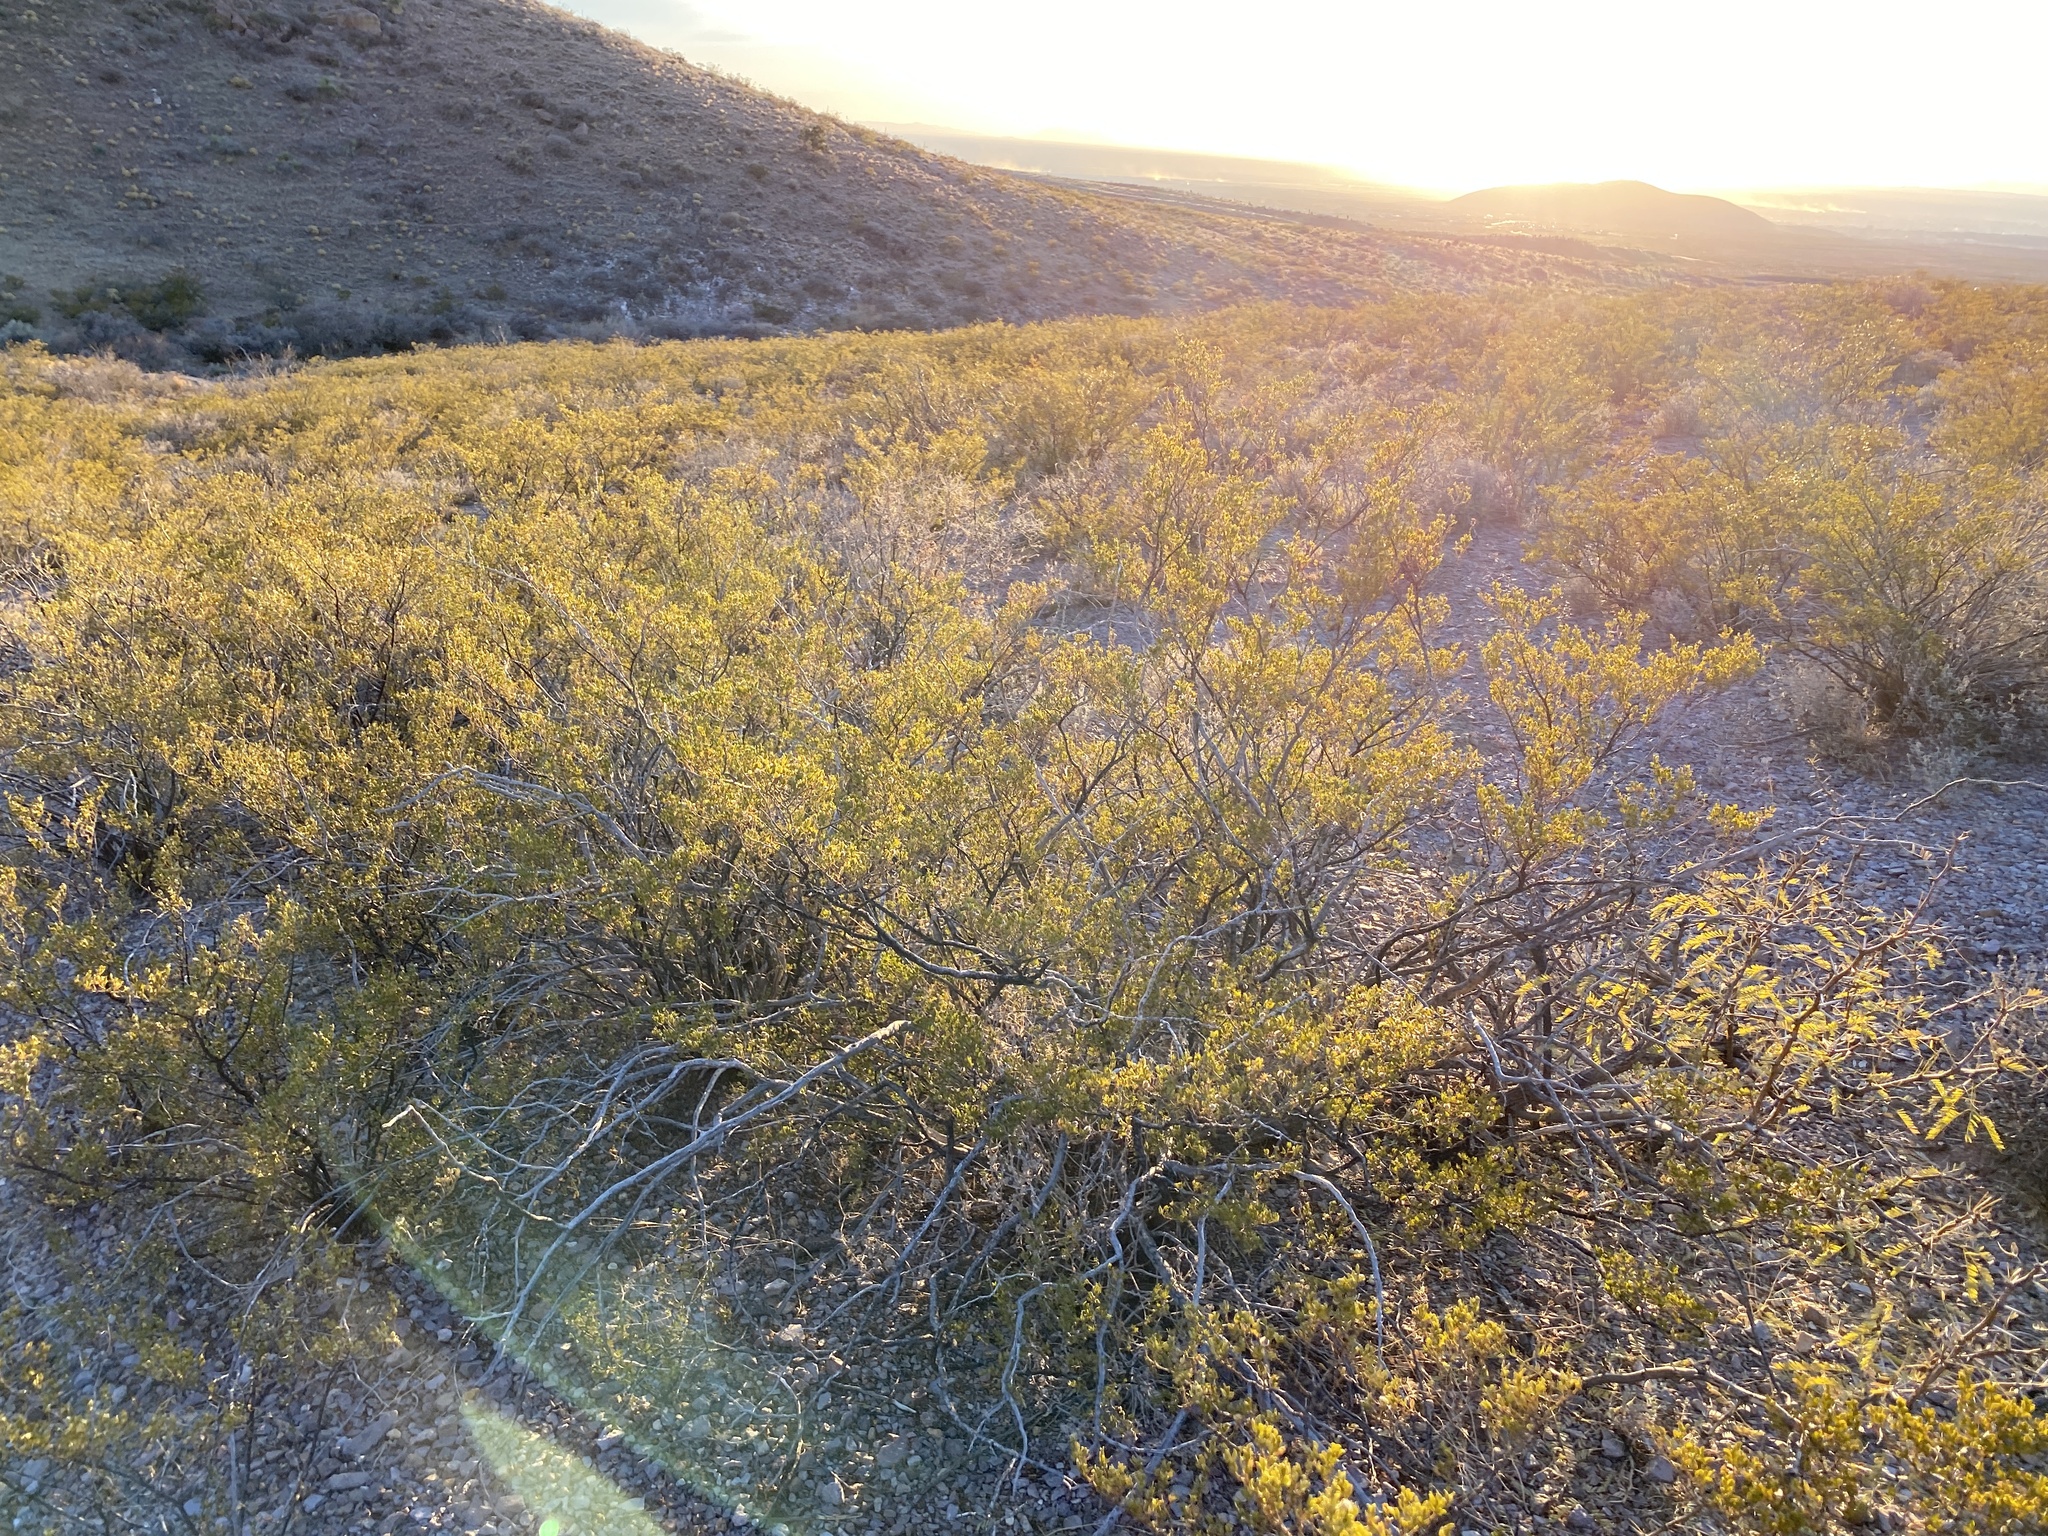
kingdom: Plantae
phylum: Tracheophyta
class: Magnoliopsida
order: Zygophyllales
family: Zygophyllaceae
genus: Larrea
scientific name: Larrea tridentata
